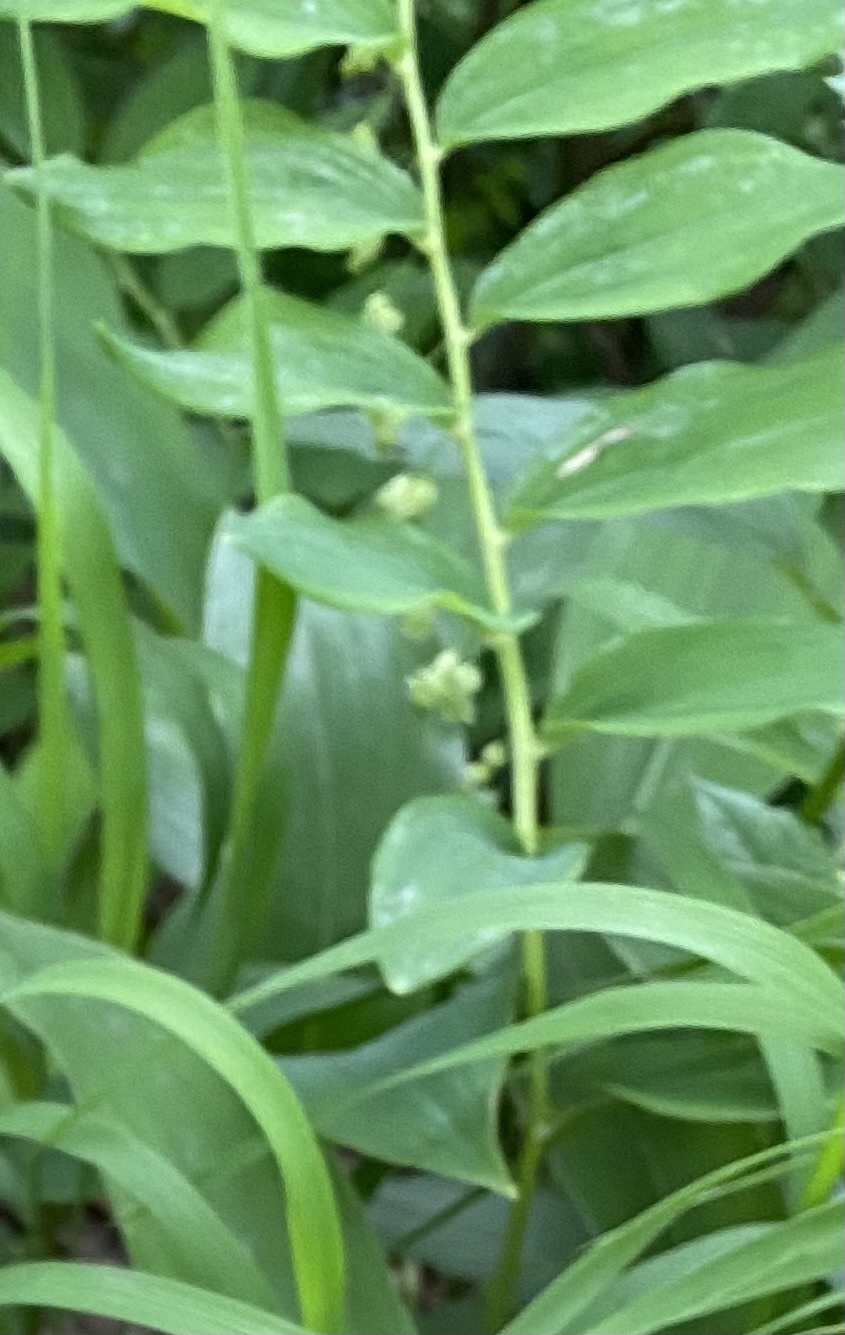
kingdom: Plantae
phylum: Tracheophyta
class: Liliopsida
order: Asparagales
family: Asparagaceae
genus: Polygonatum
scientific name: Polygonatum multiflorum
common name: Solomon's-seal
